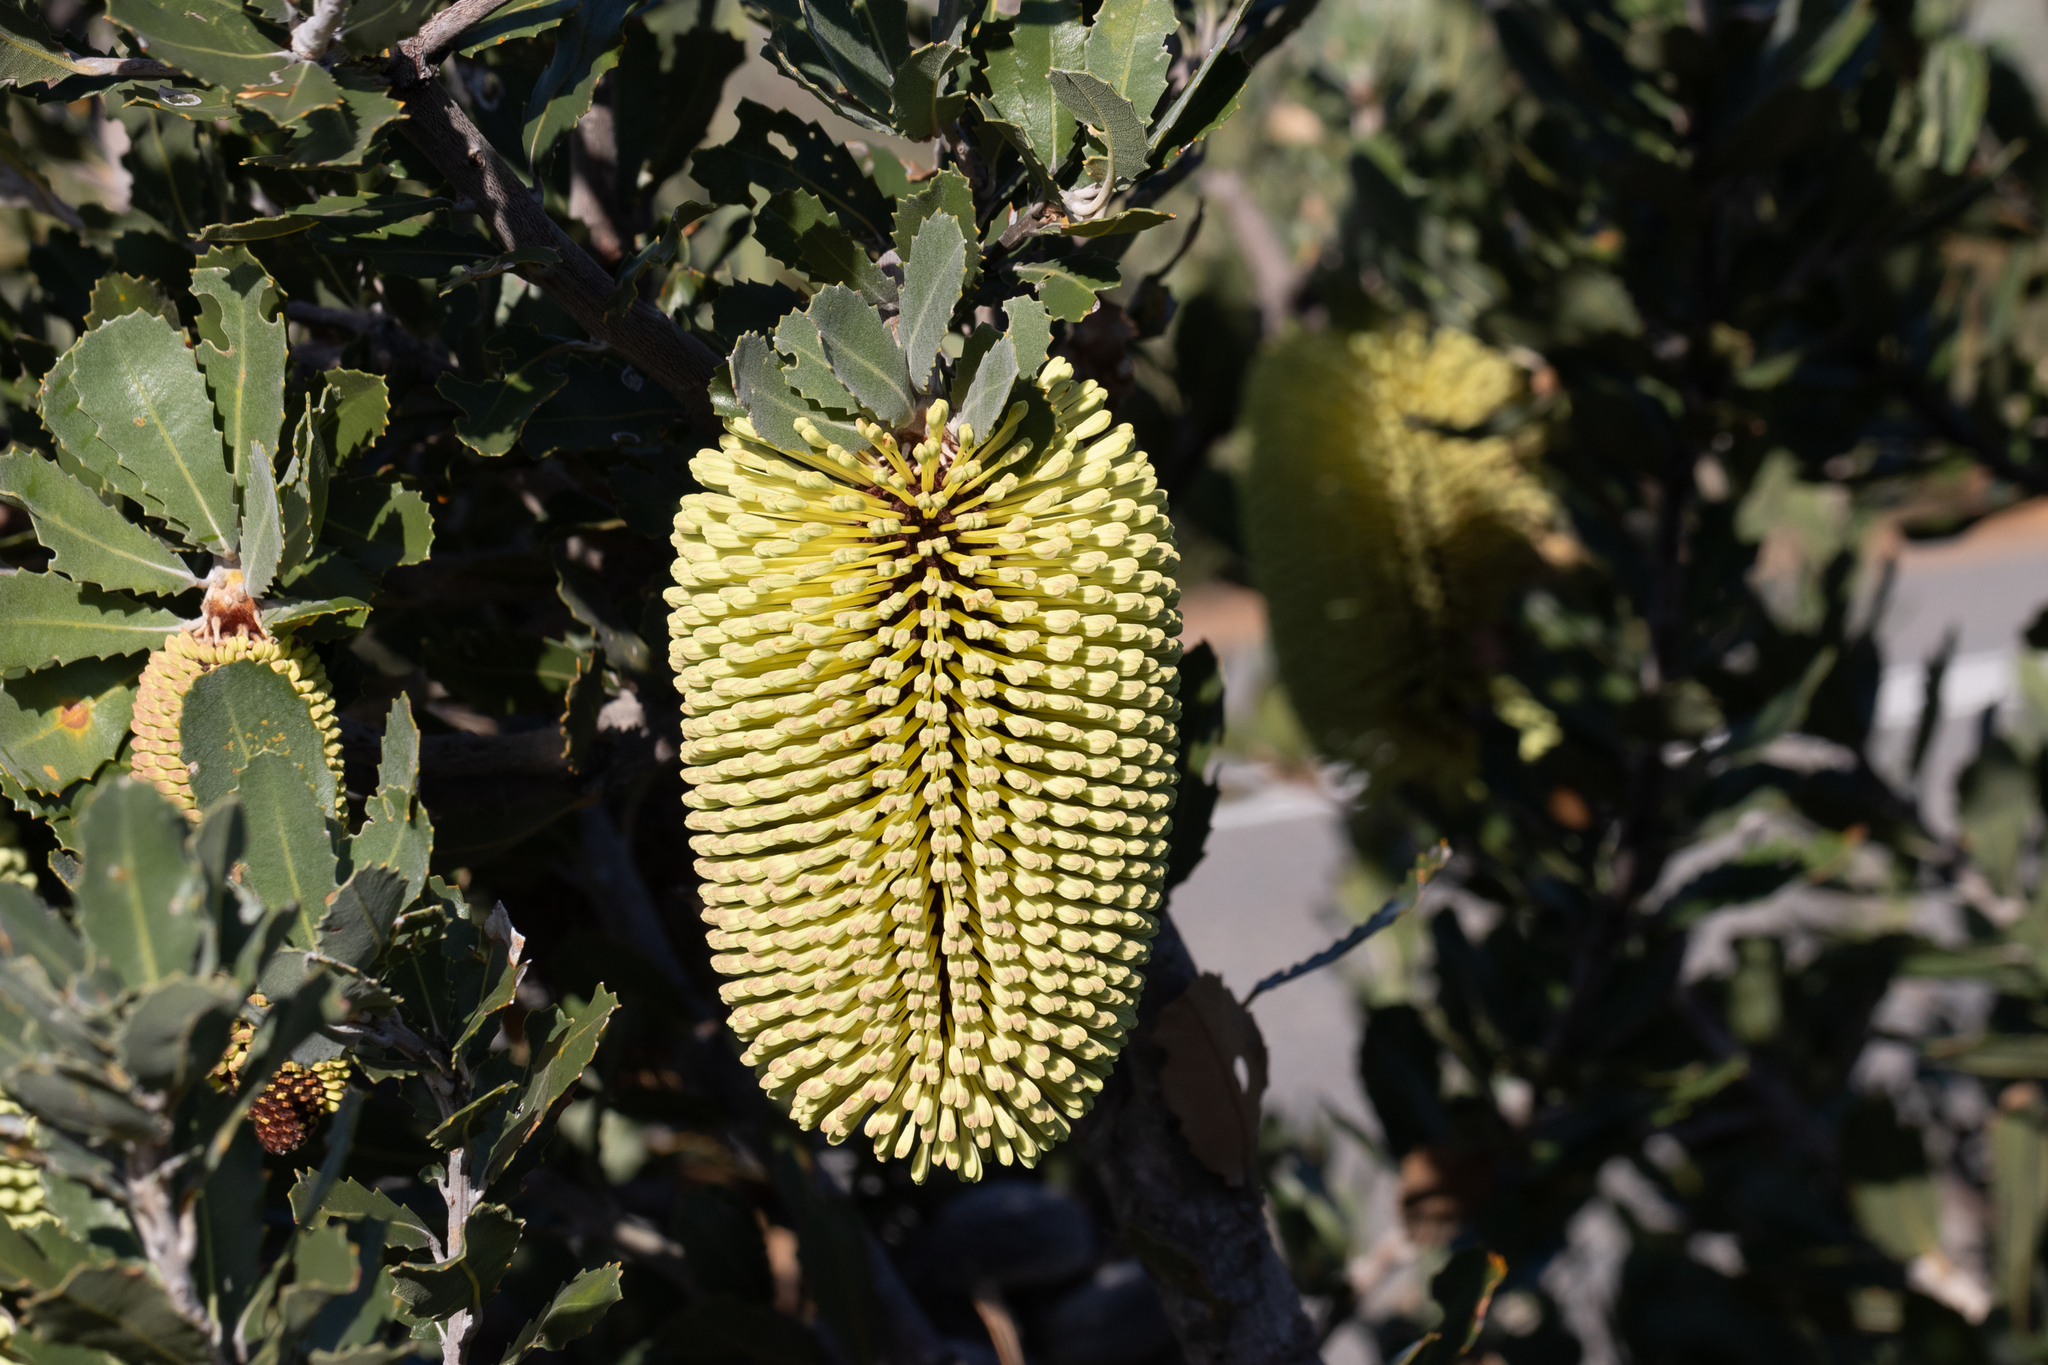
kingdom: Plantae
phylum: Tracheophyta
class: Magnoliopsida
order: Proteales
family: Proteaceae
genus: Banksia
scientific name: Banksia lemanniana
